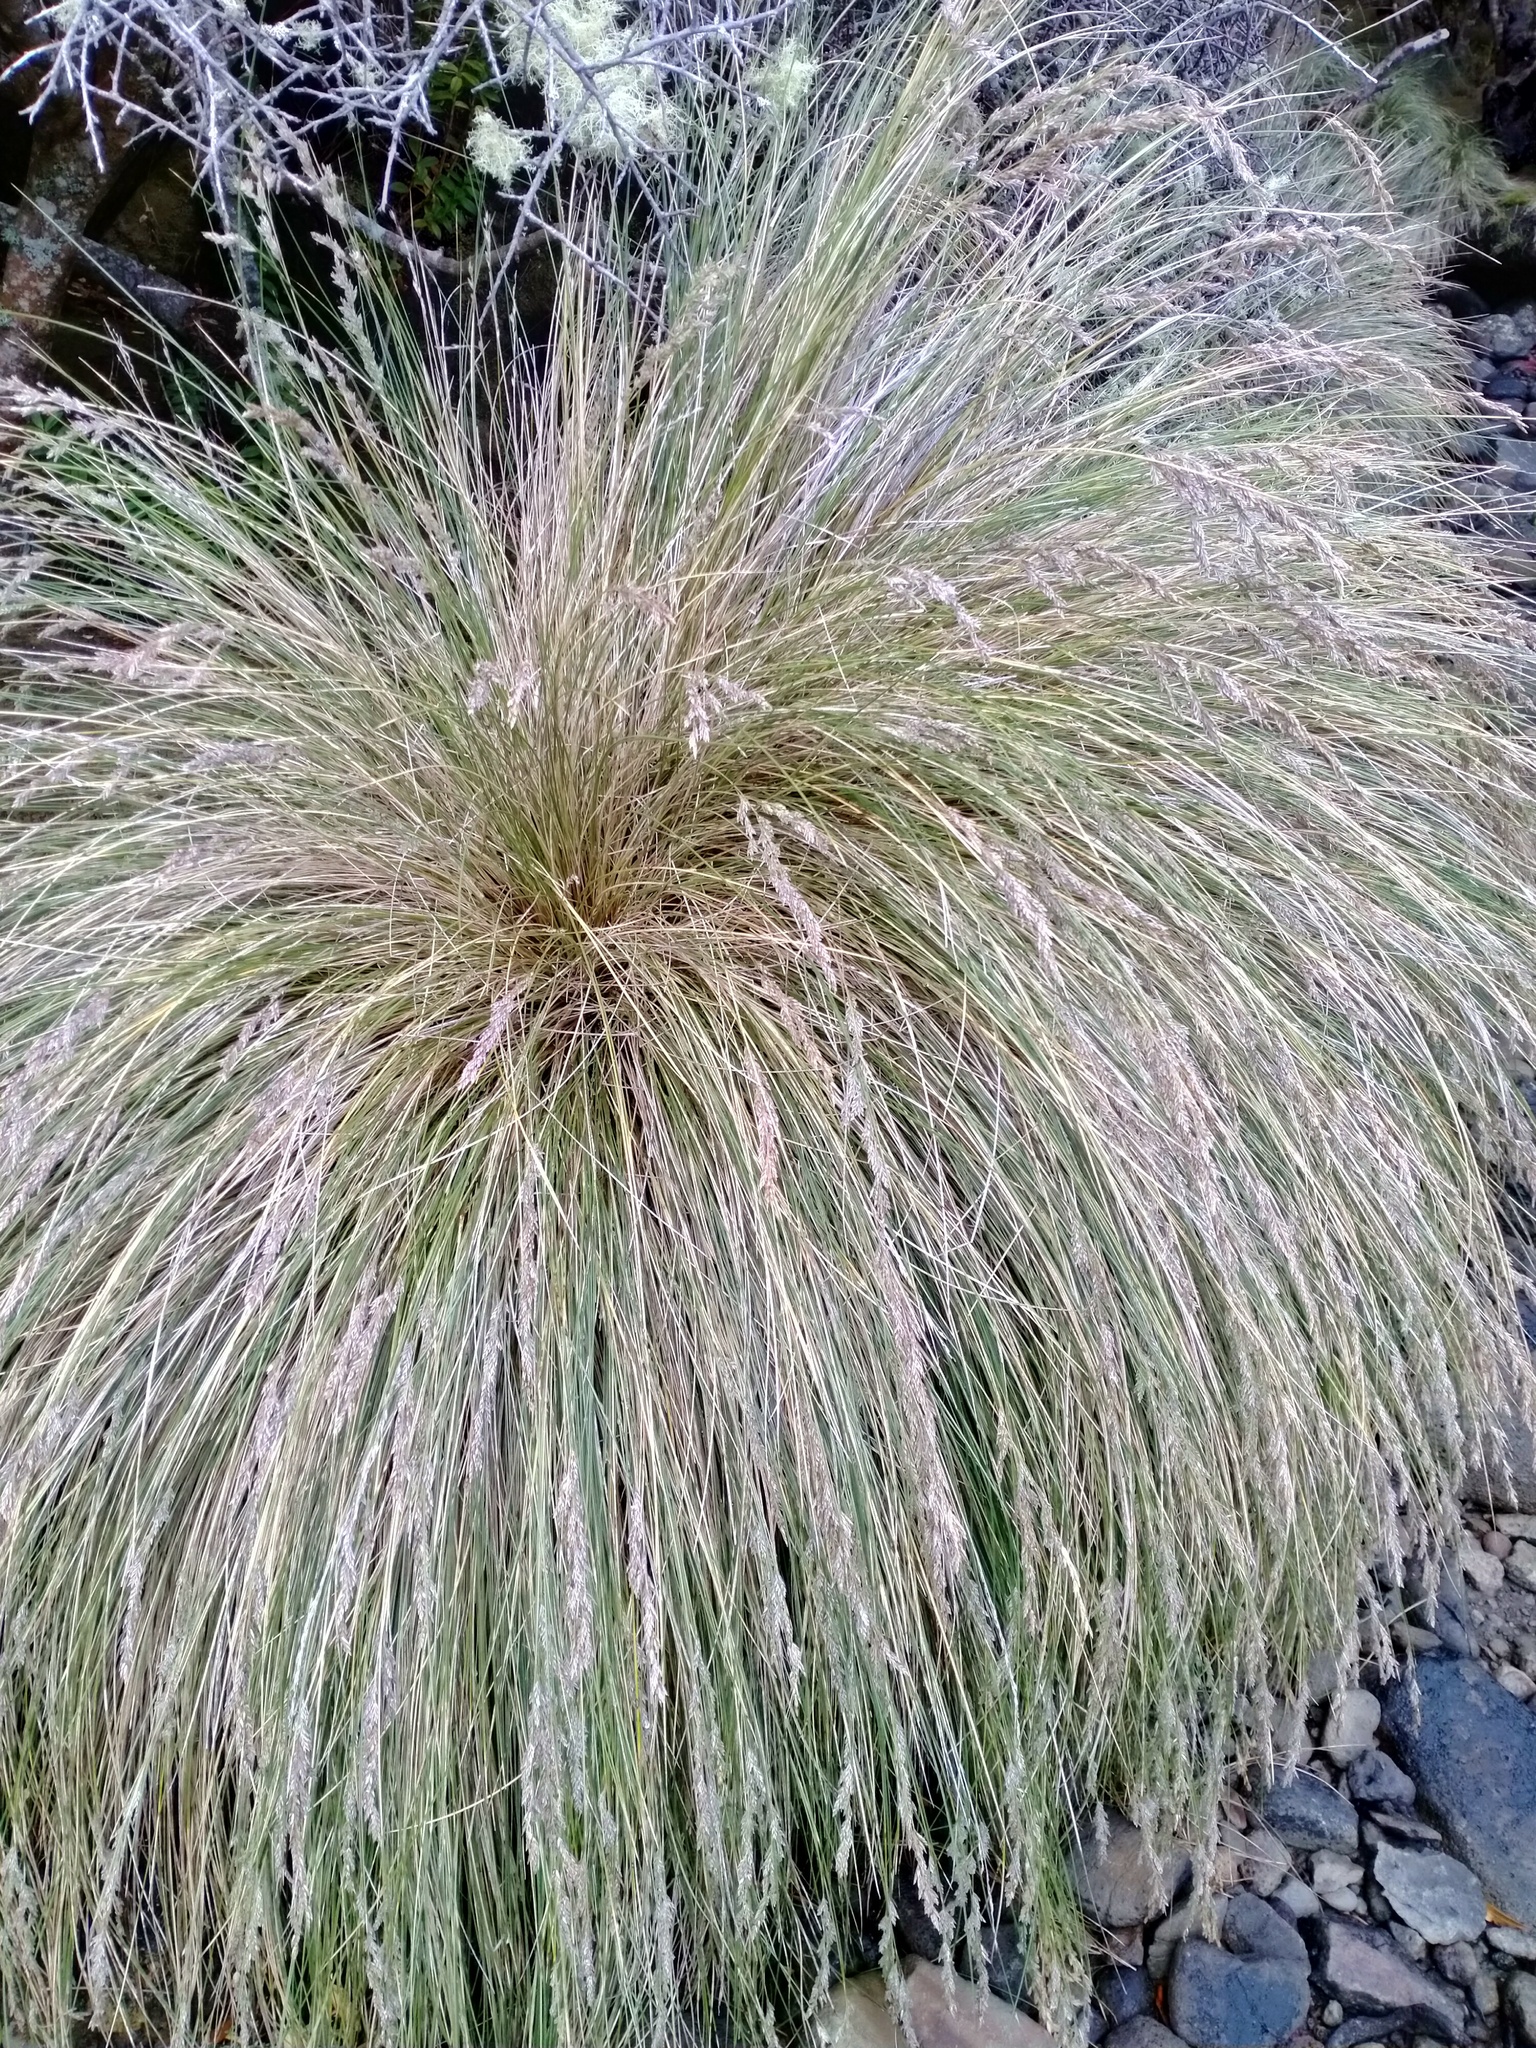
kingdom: Plantae
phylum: Tracheophyta
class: Liliopsida
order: Poales
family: Poaceae
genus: Poa
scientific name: Poa litorosa
